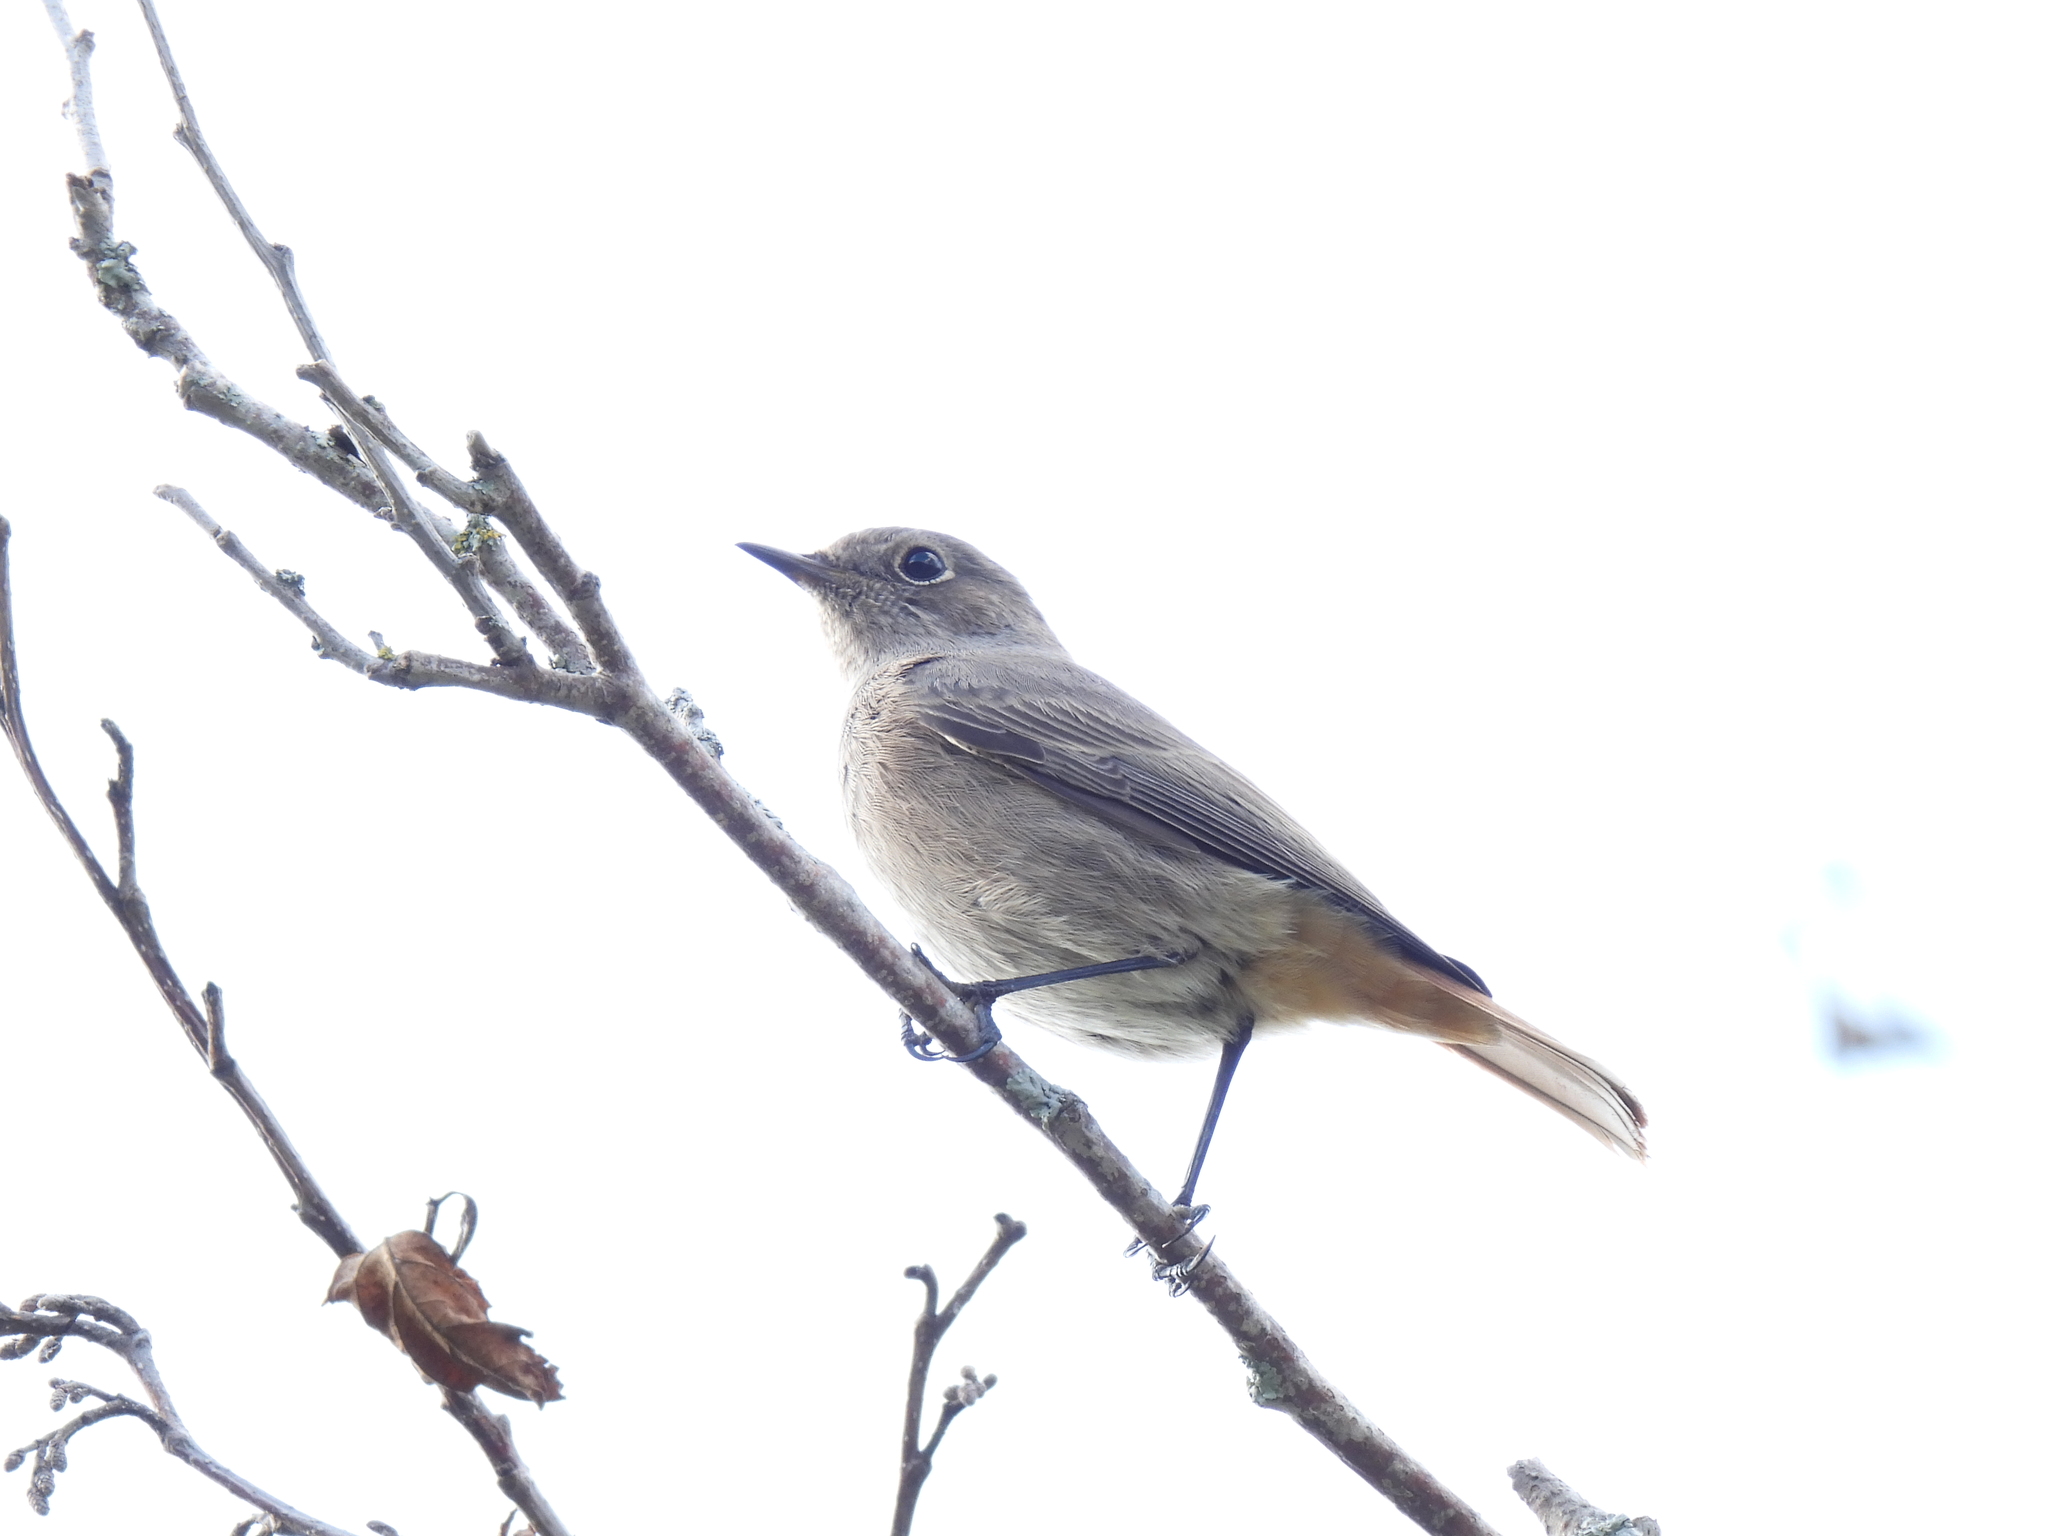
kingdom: Animalia
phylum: Chordata
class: Aves
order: Passeriformes
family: Muscicapidae
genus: Phoenicurus
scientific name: Phoenicurus ochruros
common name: Black redstart
